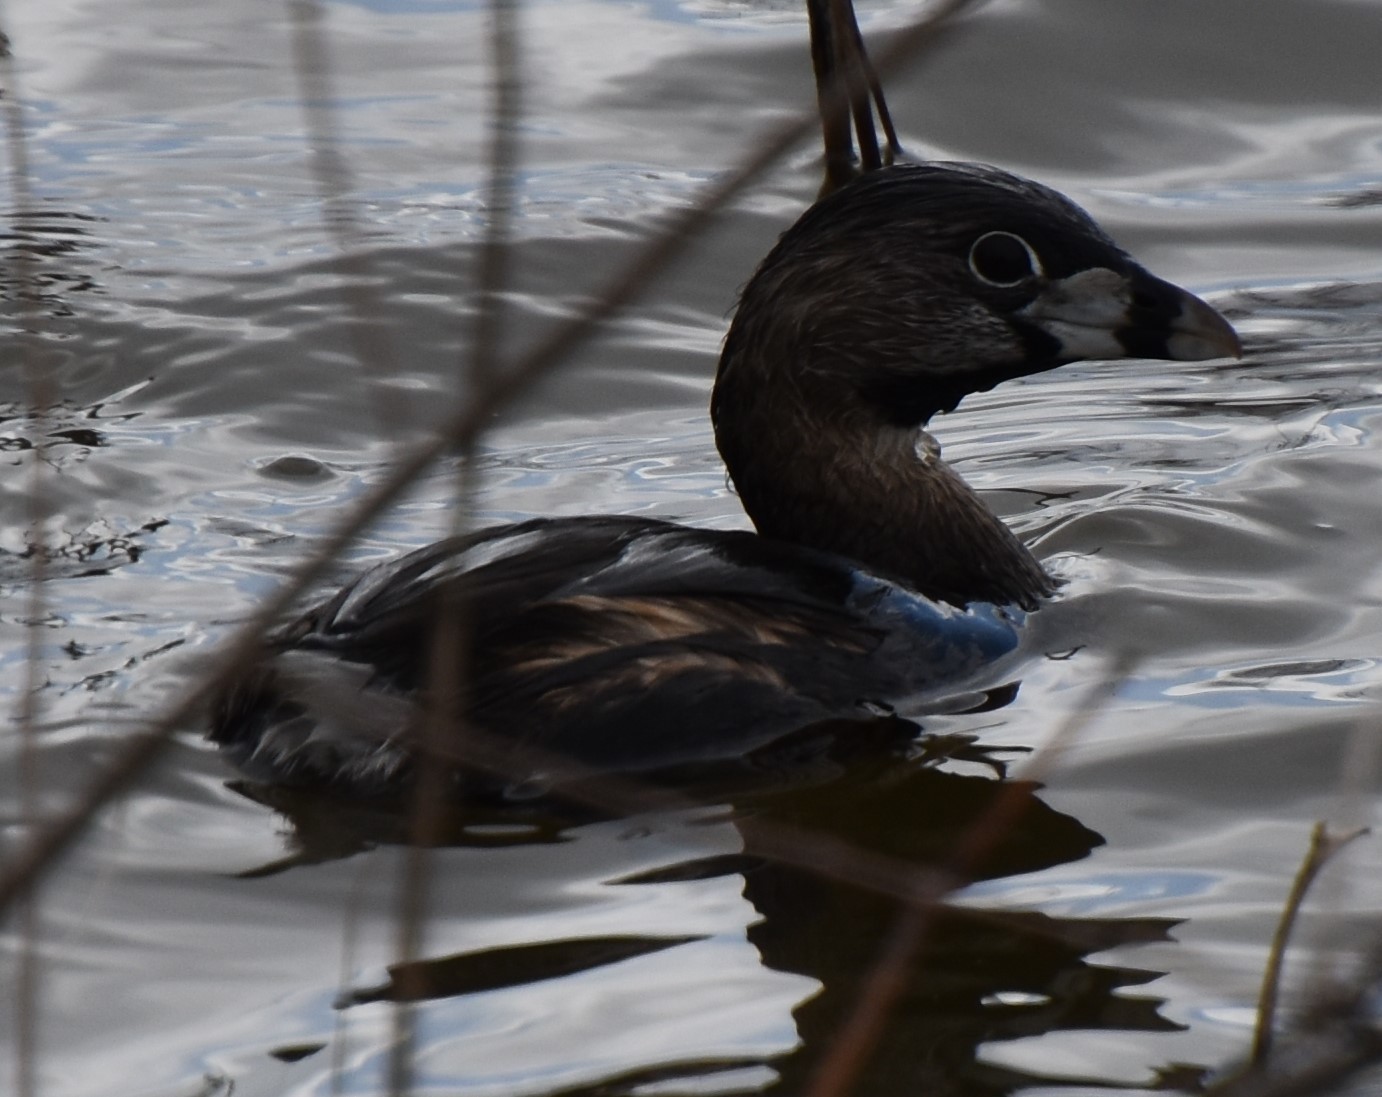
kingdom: Animalia
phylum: Chordata
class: Aves
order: Podicipediformes
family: Podicipedidae
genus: Podilymbus
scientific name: Podilymbus podiceps
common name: Pied-billed grebe
